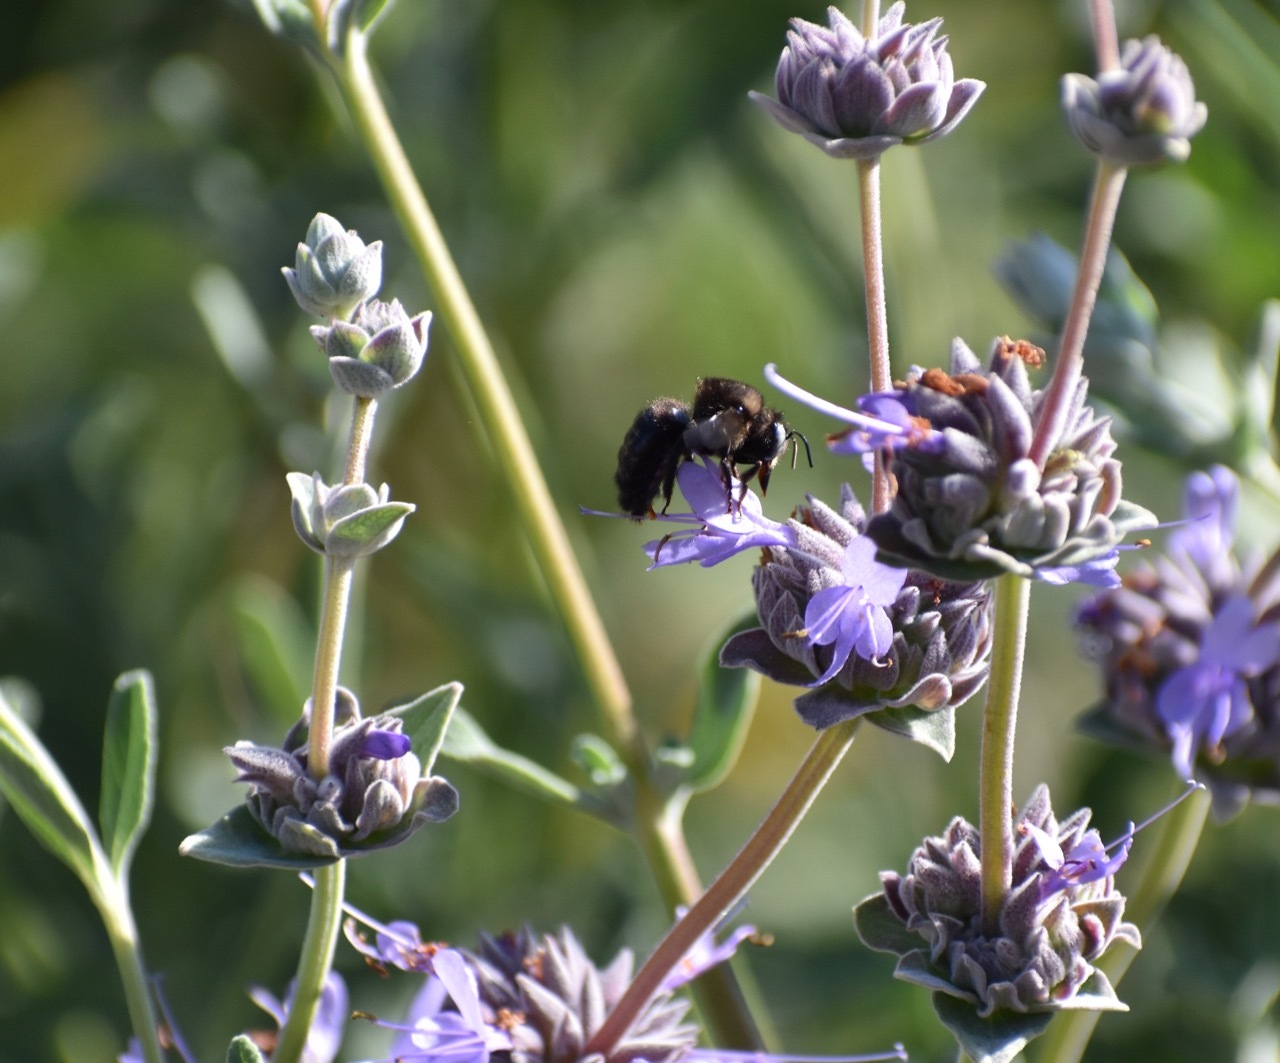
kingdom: Animalia
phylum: Arthropoda
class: Insecta
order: Hymenoptera
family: Apidae
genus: Xylocopa
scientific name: Xylocopa tabaniformis
